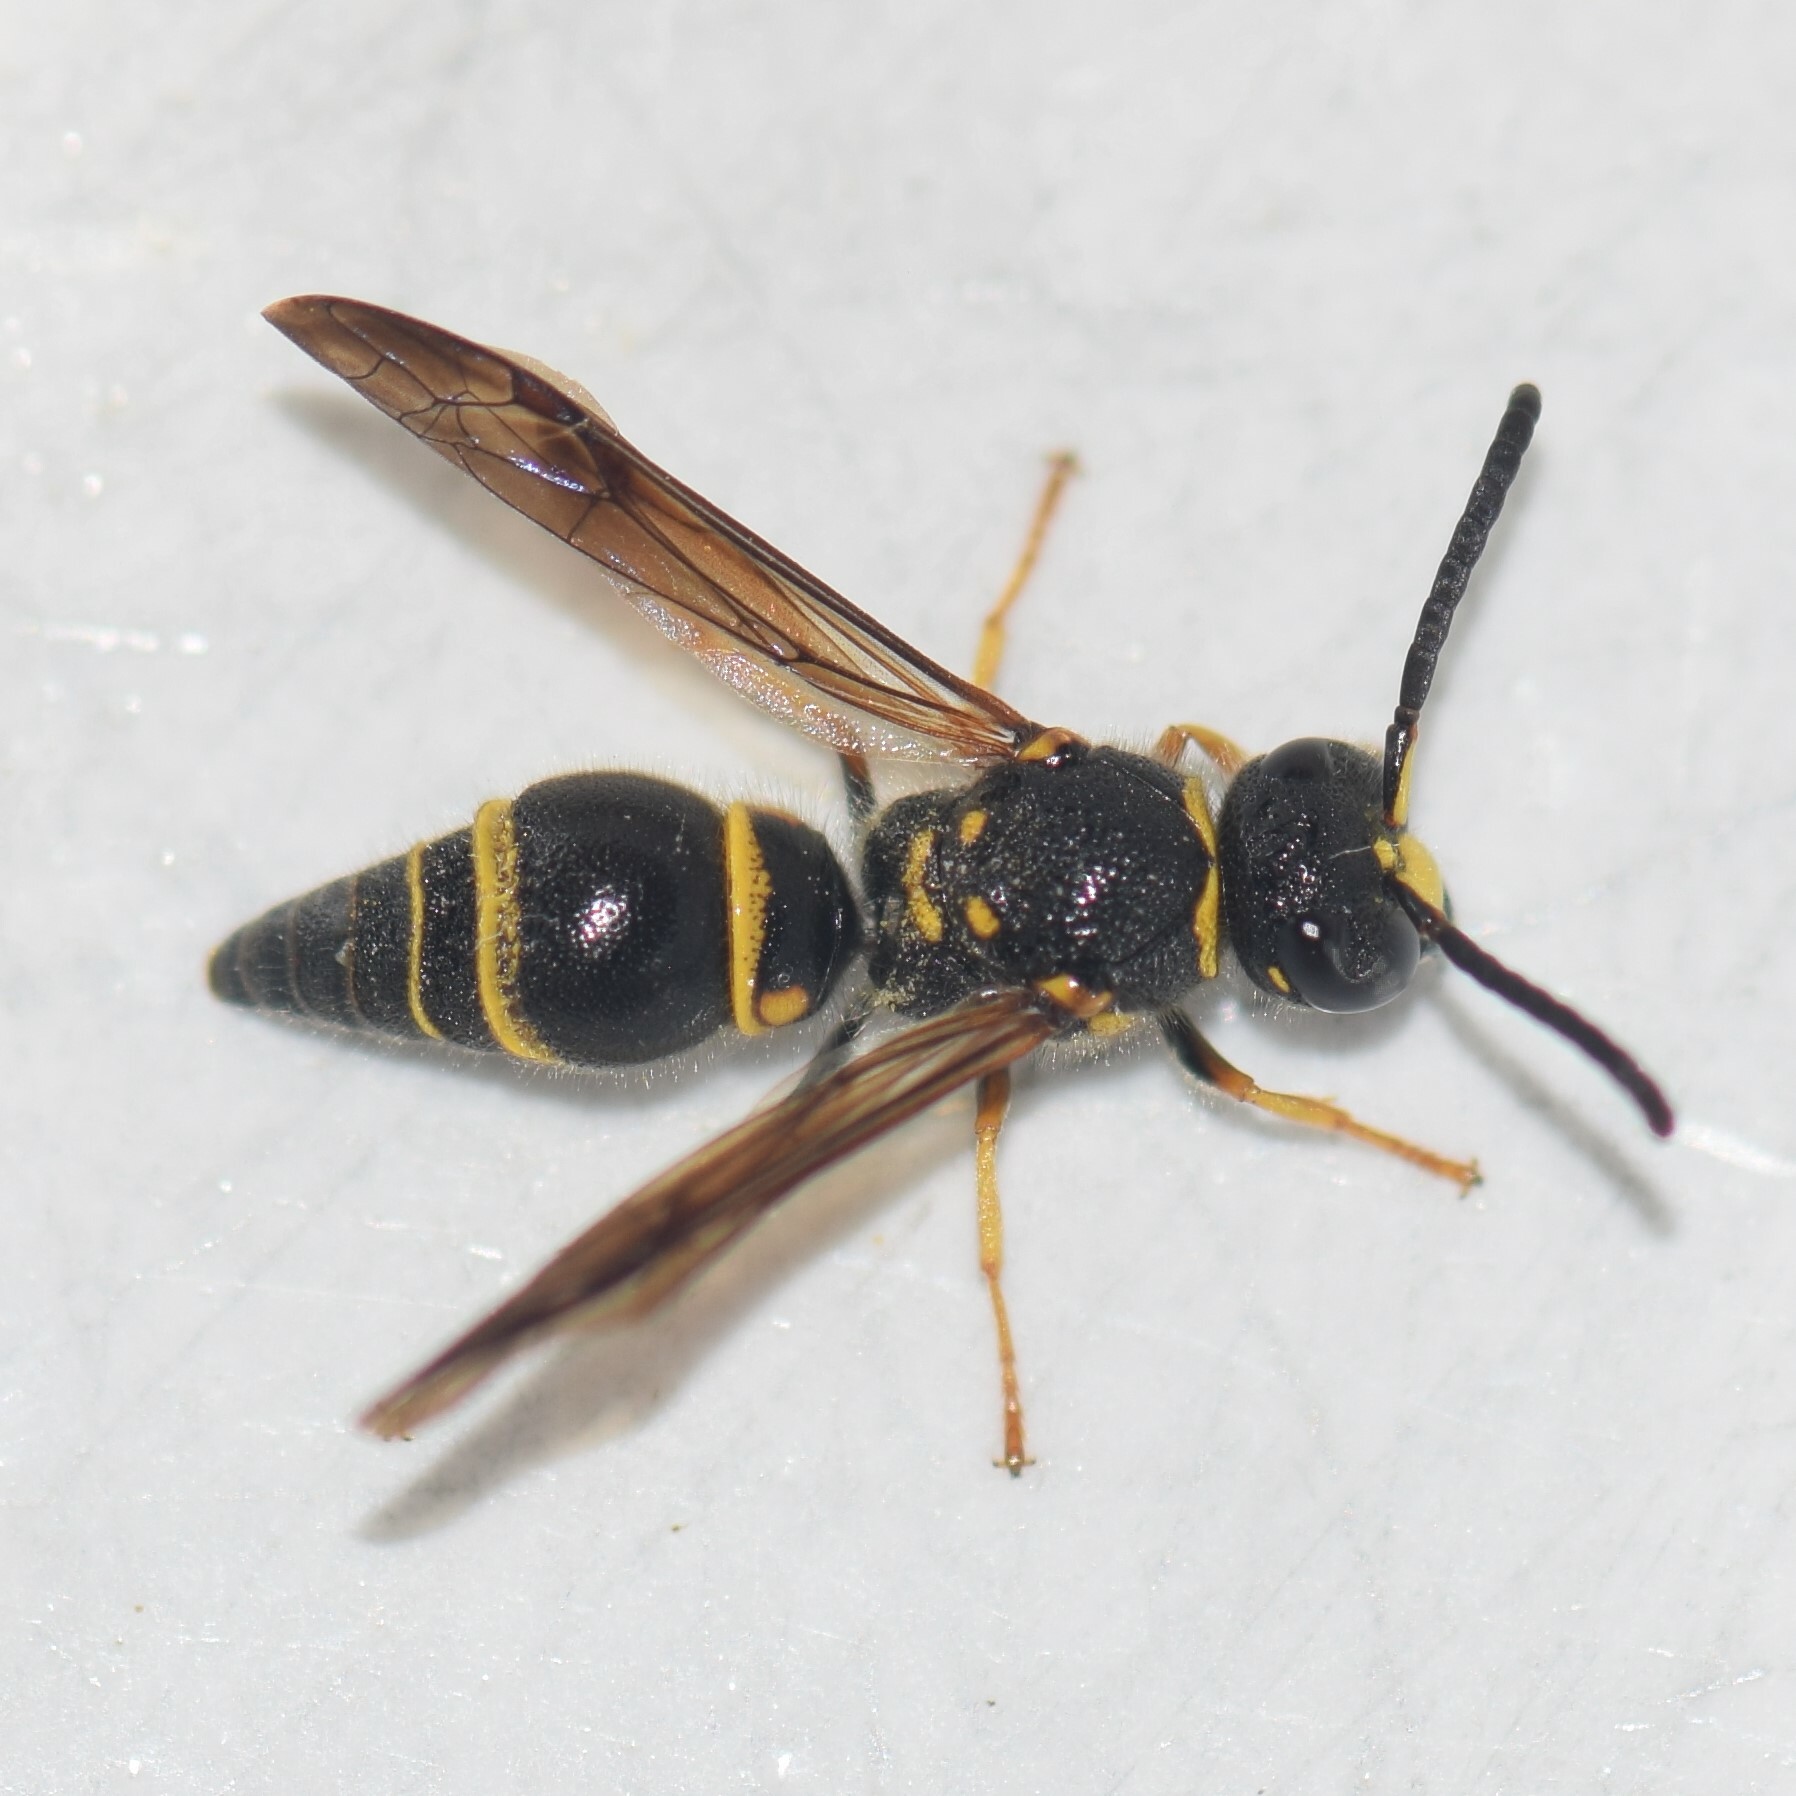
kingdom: Animalia
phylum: Arthropoda
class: Insecta
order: Hymenoptera
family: Vespidae
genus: Ancistrocerus
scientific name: Ancistrocerus campestris
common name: Smiling mason wasp
